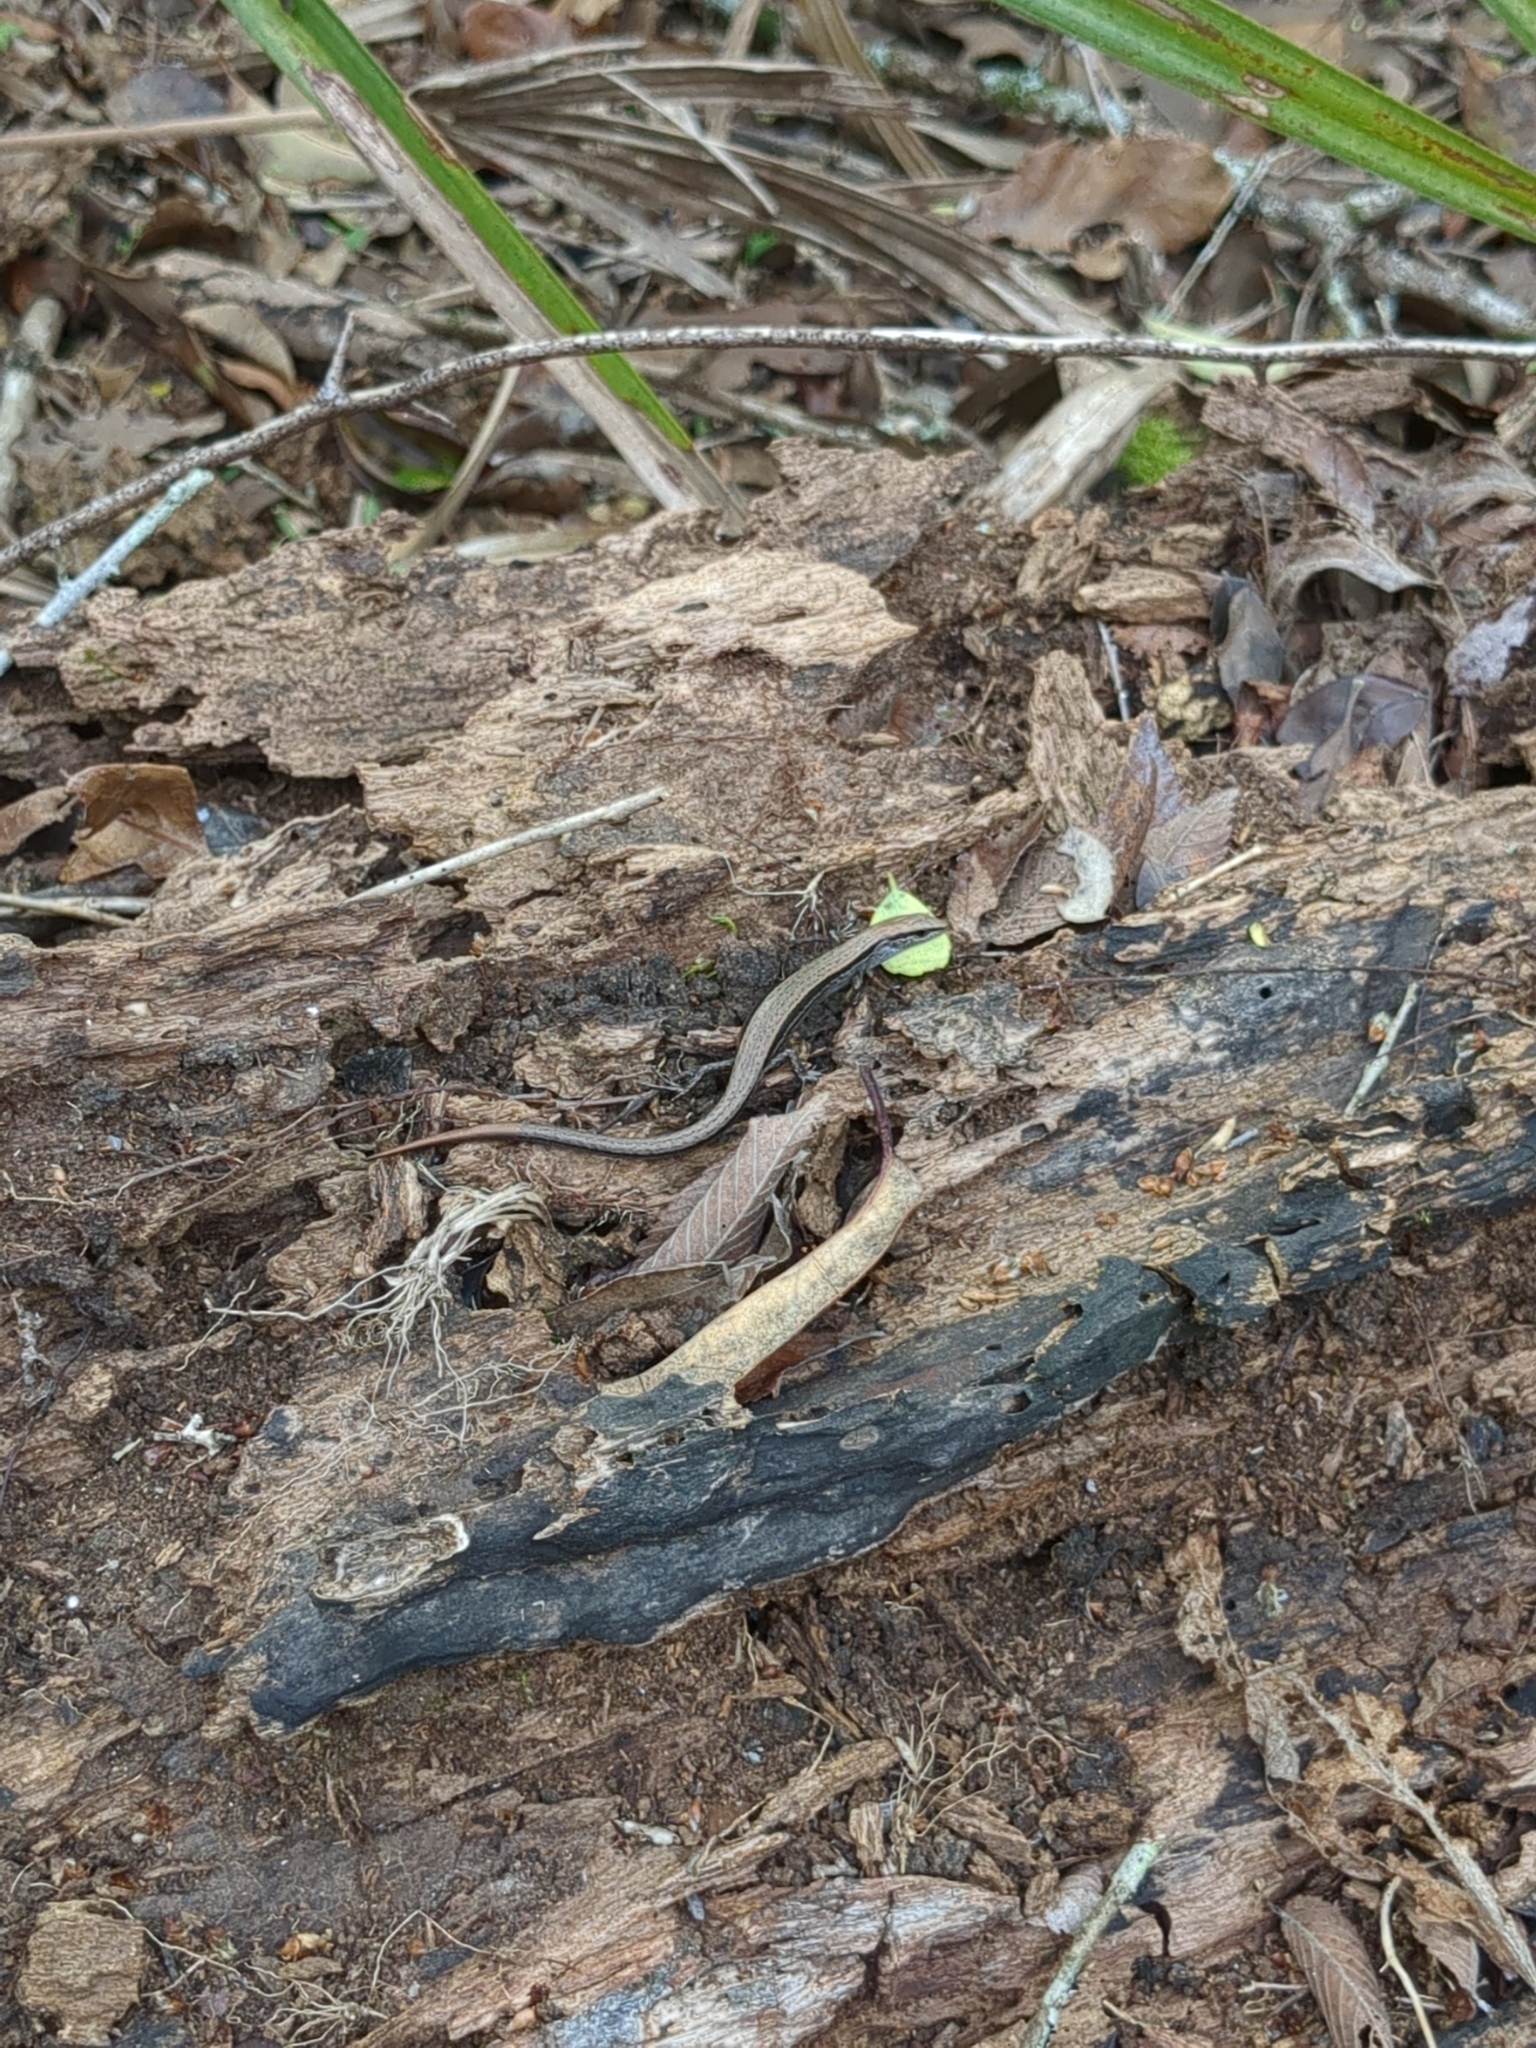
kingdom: Animalia
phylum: Chordata
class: Squamata
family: Scincidae
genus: Scincella
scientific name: Scincella lateralis
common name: Ground skink
